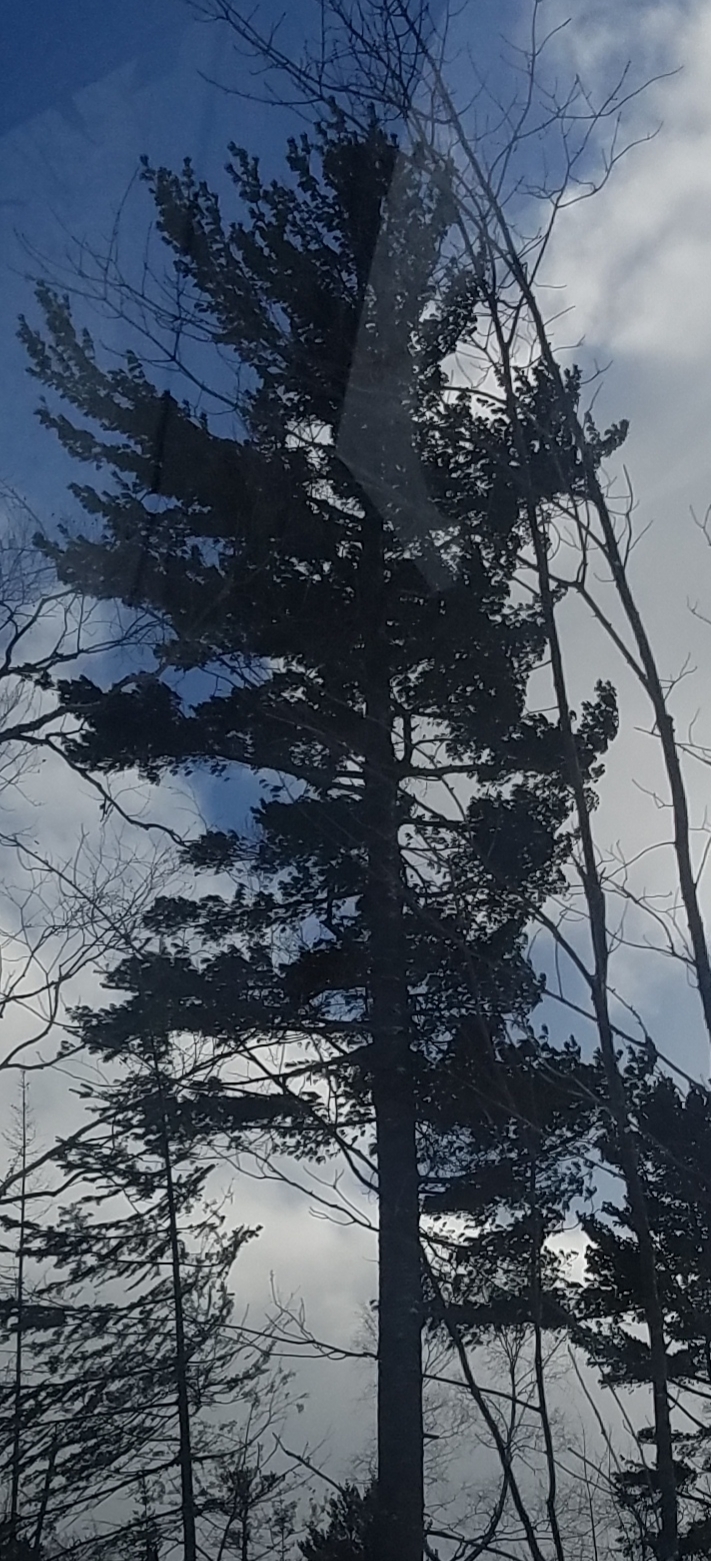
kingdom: Plantae
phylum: Tracheophyta
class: Pinopsida
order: Pinales
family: Pinaceae
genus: Pinus
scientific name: Pinus strobus
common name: Weymouth pine
